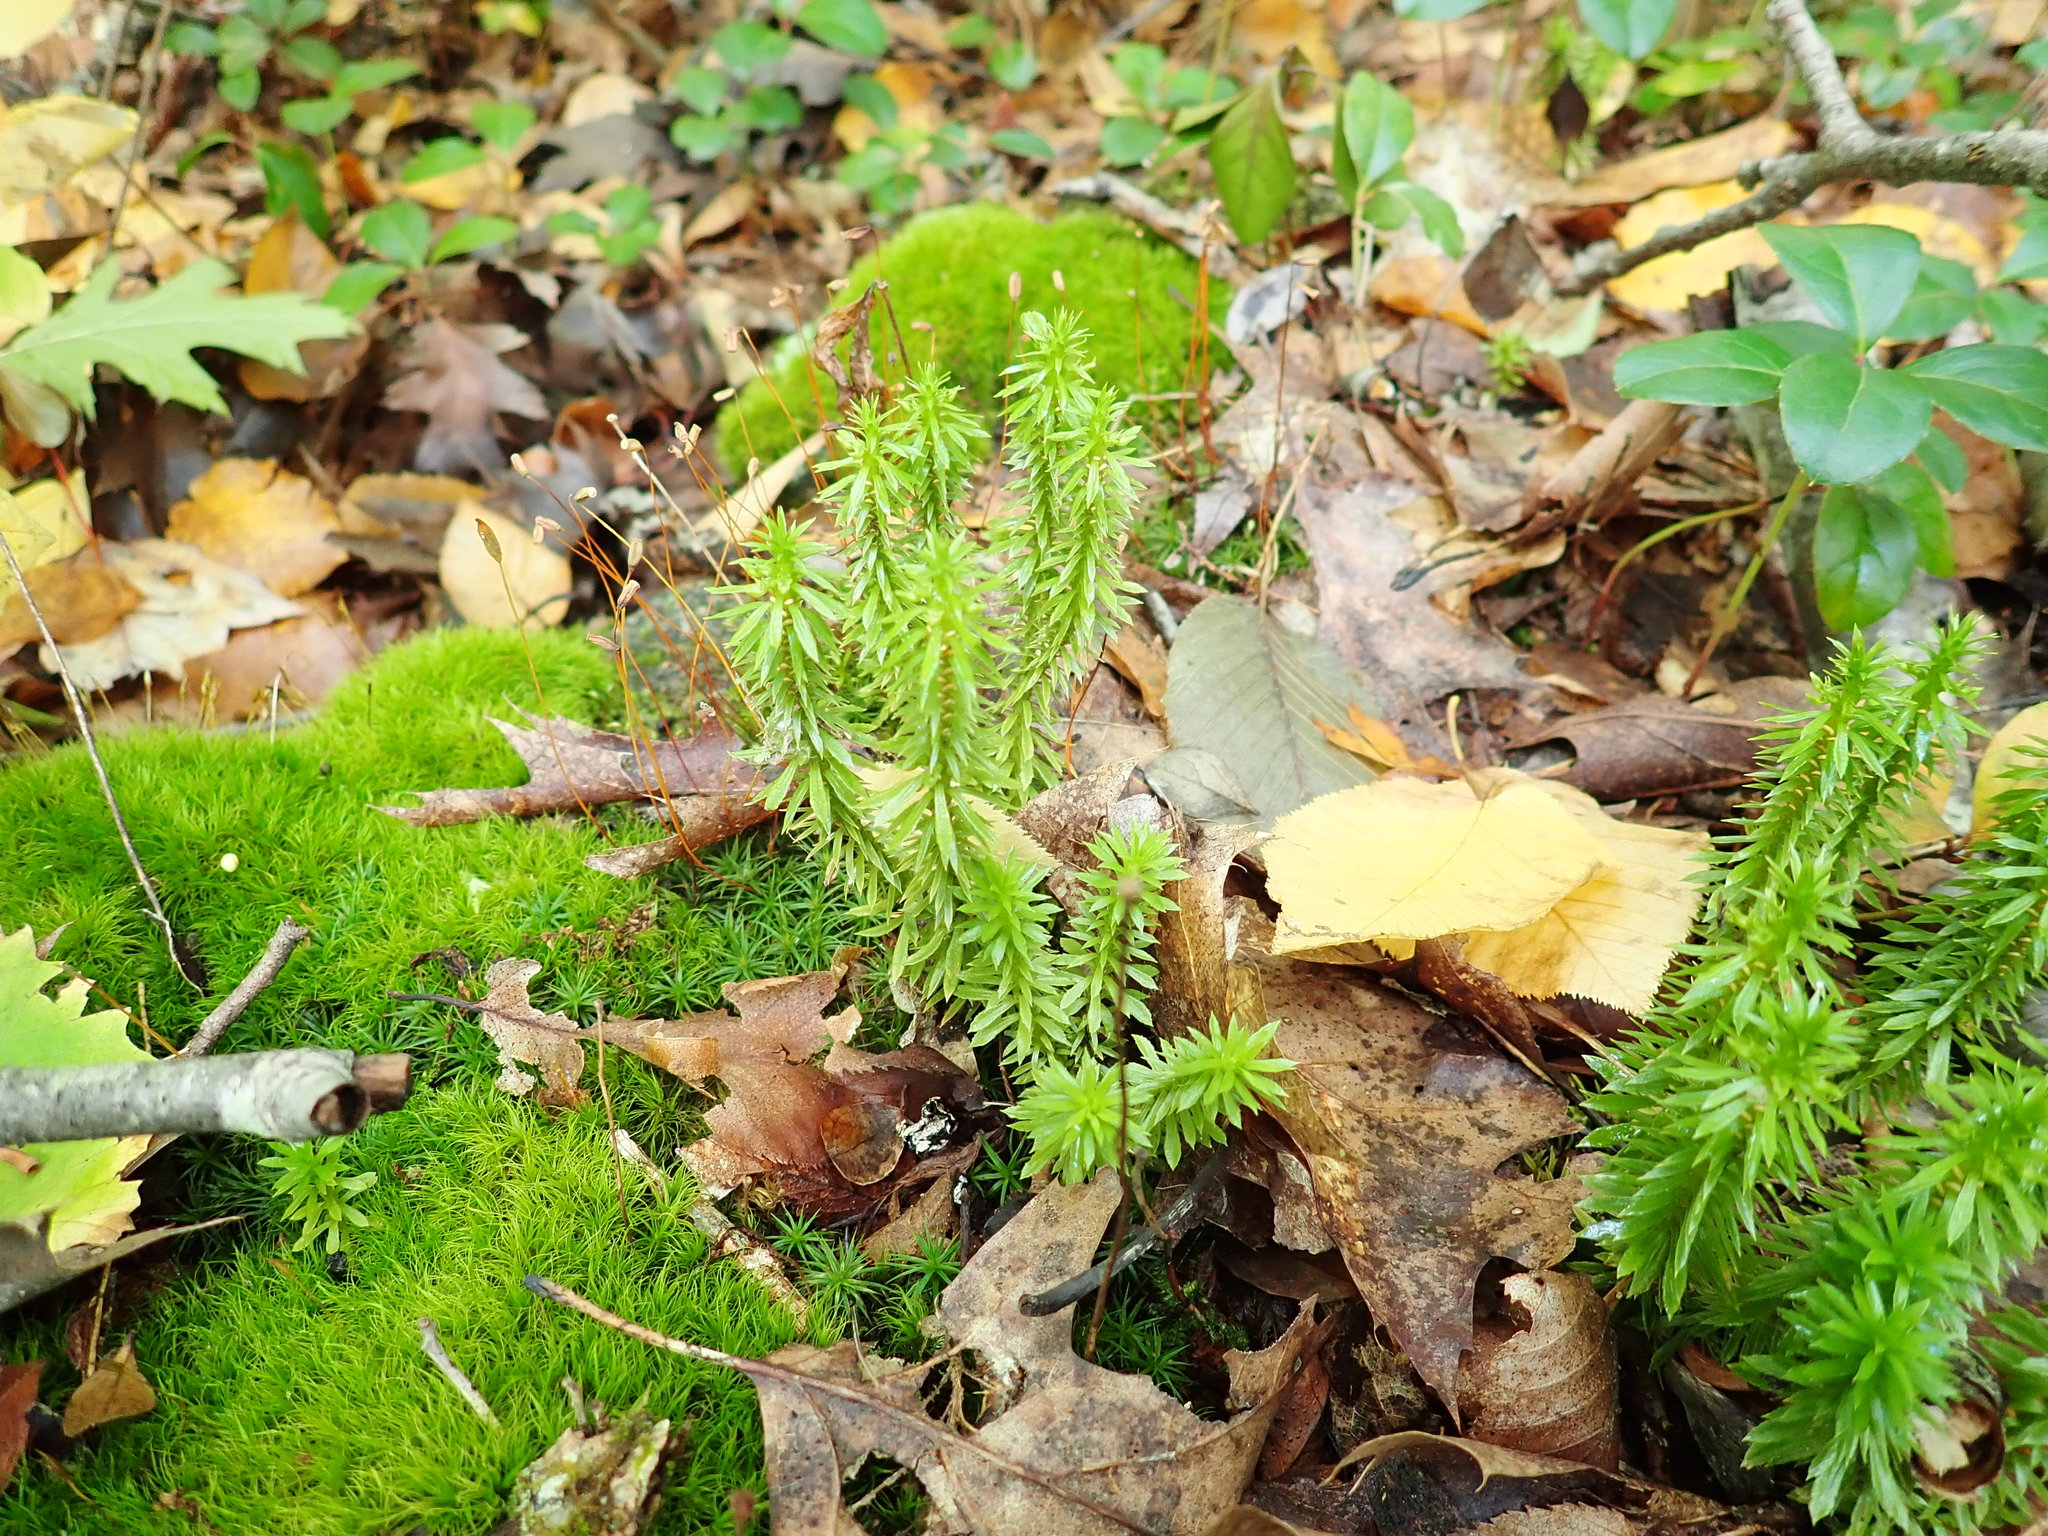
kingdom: Plantae
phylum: Tracheophyta
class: Lycopodiopsida
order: Lycopodiales
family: Lycopodiaceae
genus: Huperzia
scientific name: Huperzia lucidula
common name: Shining clubmoss
